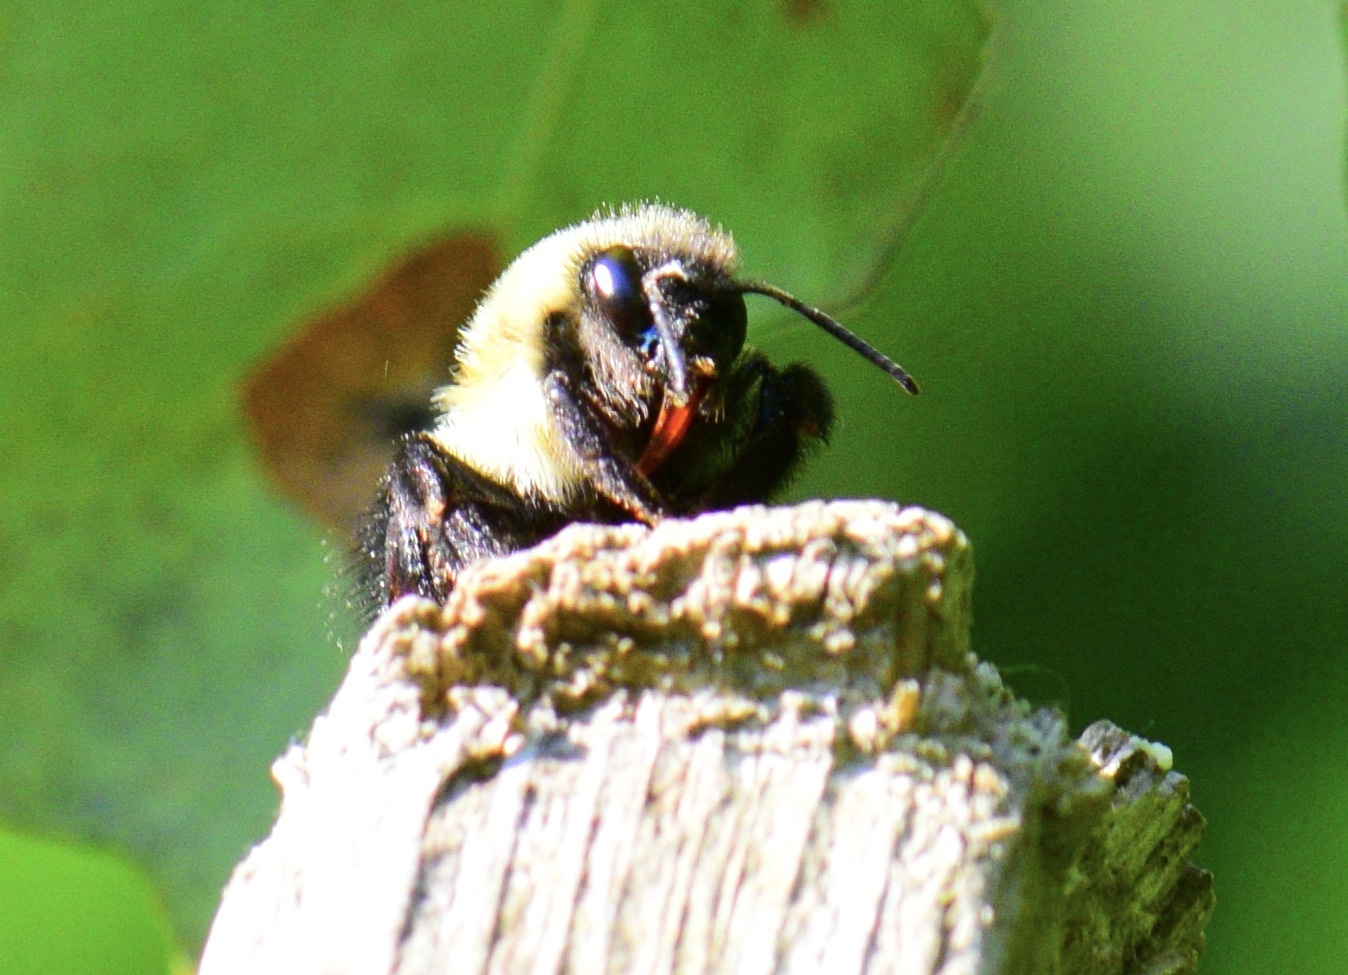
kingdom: Animalia
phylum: Arthropoda
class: Insecta
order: Hymenoptera
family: Apidae
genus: Bombus
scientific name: Bombus impatiens
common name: Common eastern bumble bee
